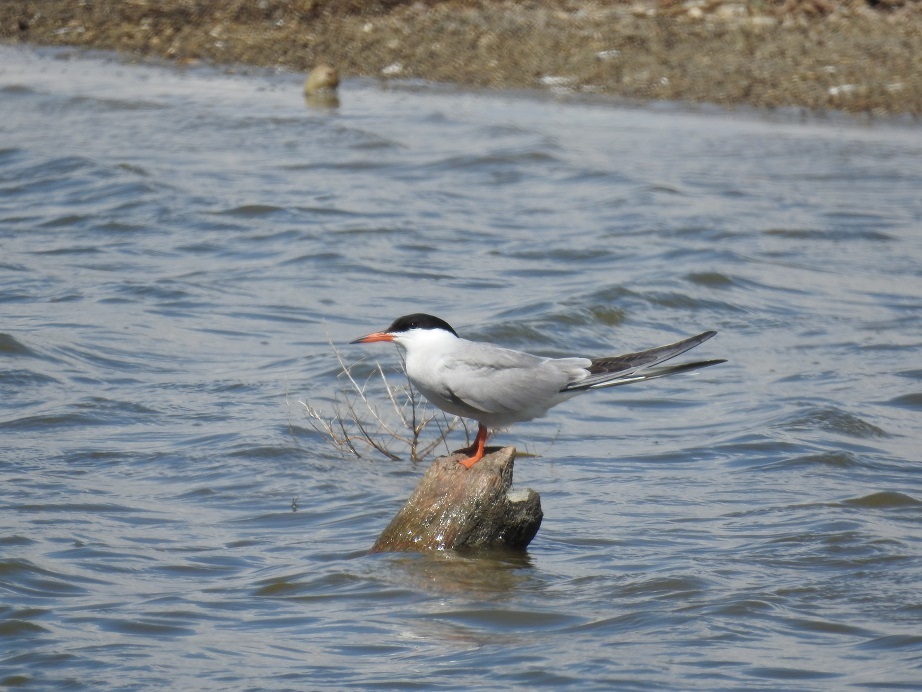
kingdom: Animalia
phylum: Chordata
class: Aves
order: Charadriiformes
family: Laridae
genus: Sterna
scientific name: Sterna hirundo
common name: Common tern
